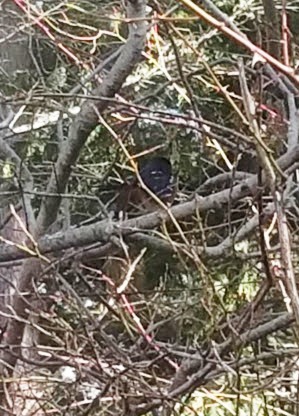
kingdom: Animalia
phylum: Chordata
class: Aves
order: Passeriformes
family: Passerellidae
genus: Pipilo
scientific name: Pipilo maculatus
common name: Spotted towhee
